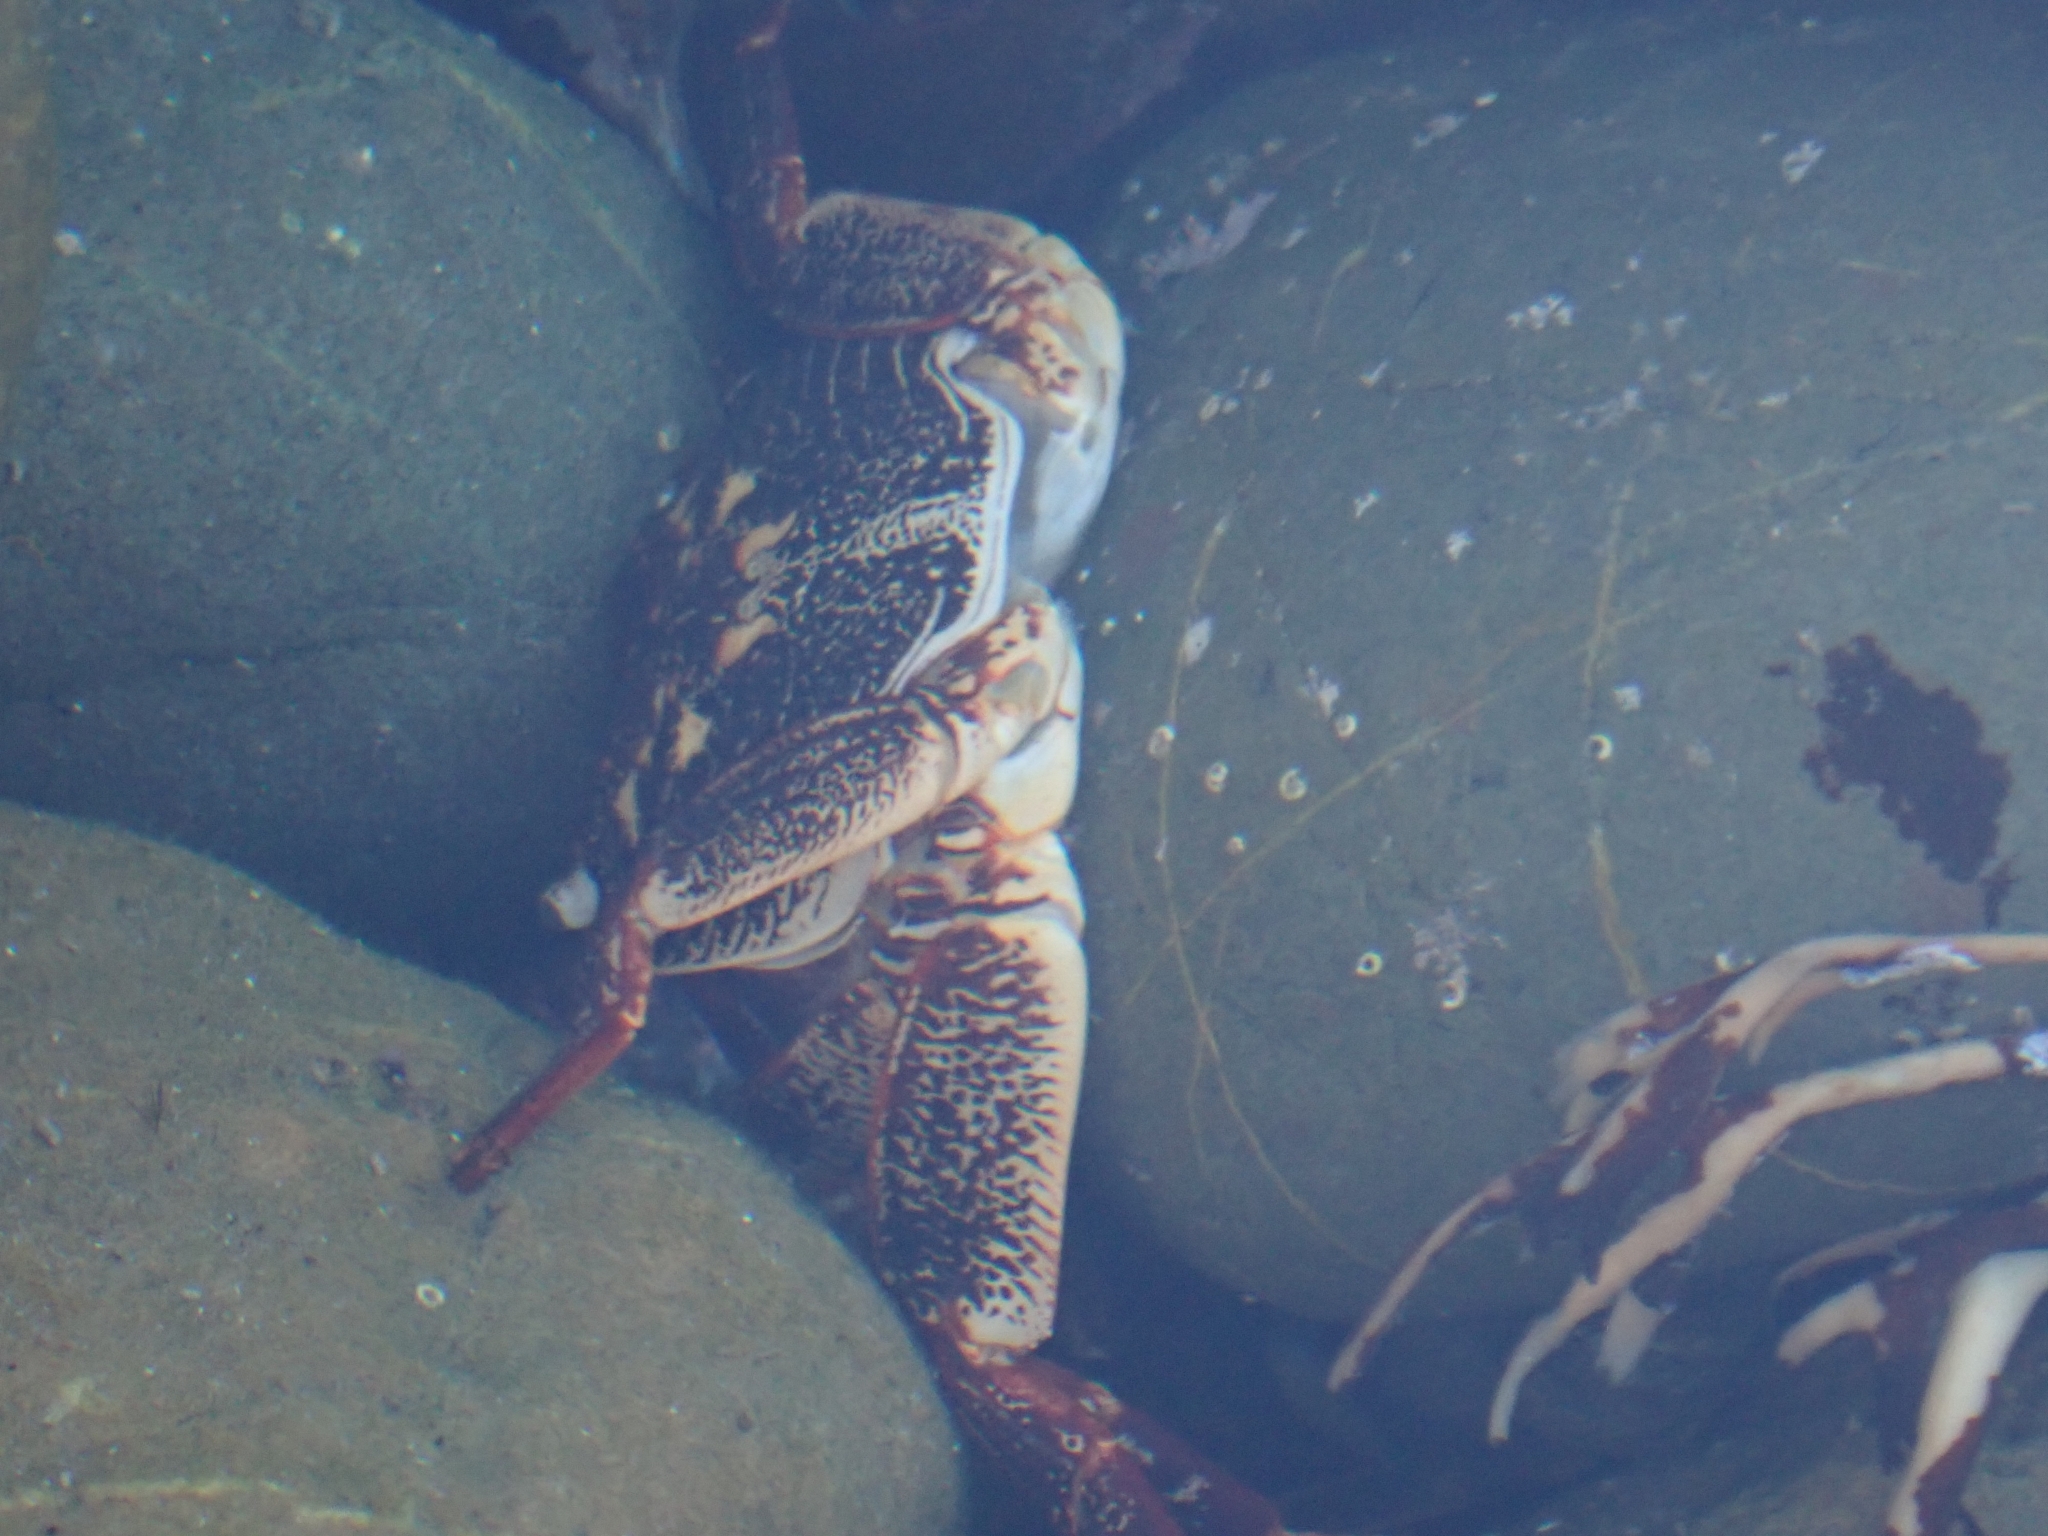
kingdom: Animalia
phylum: Arthropoda
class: Malacostraca
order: Decapoda
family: Grapsidae
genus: Leptograpsus
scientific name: Leptograpsus variegatus
